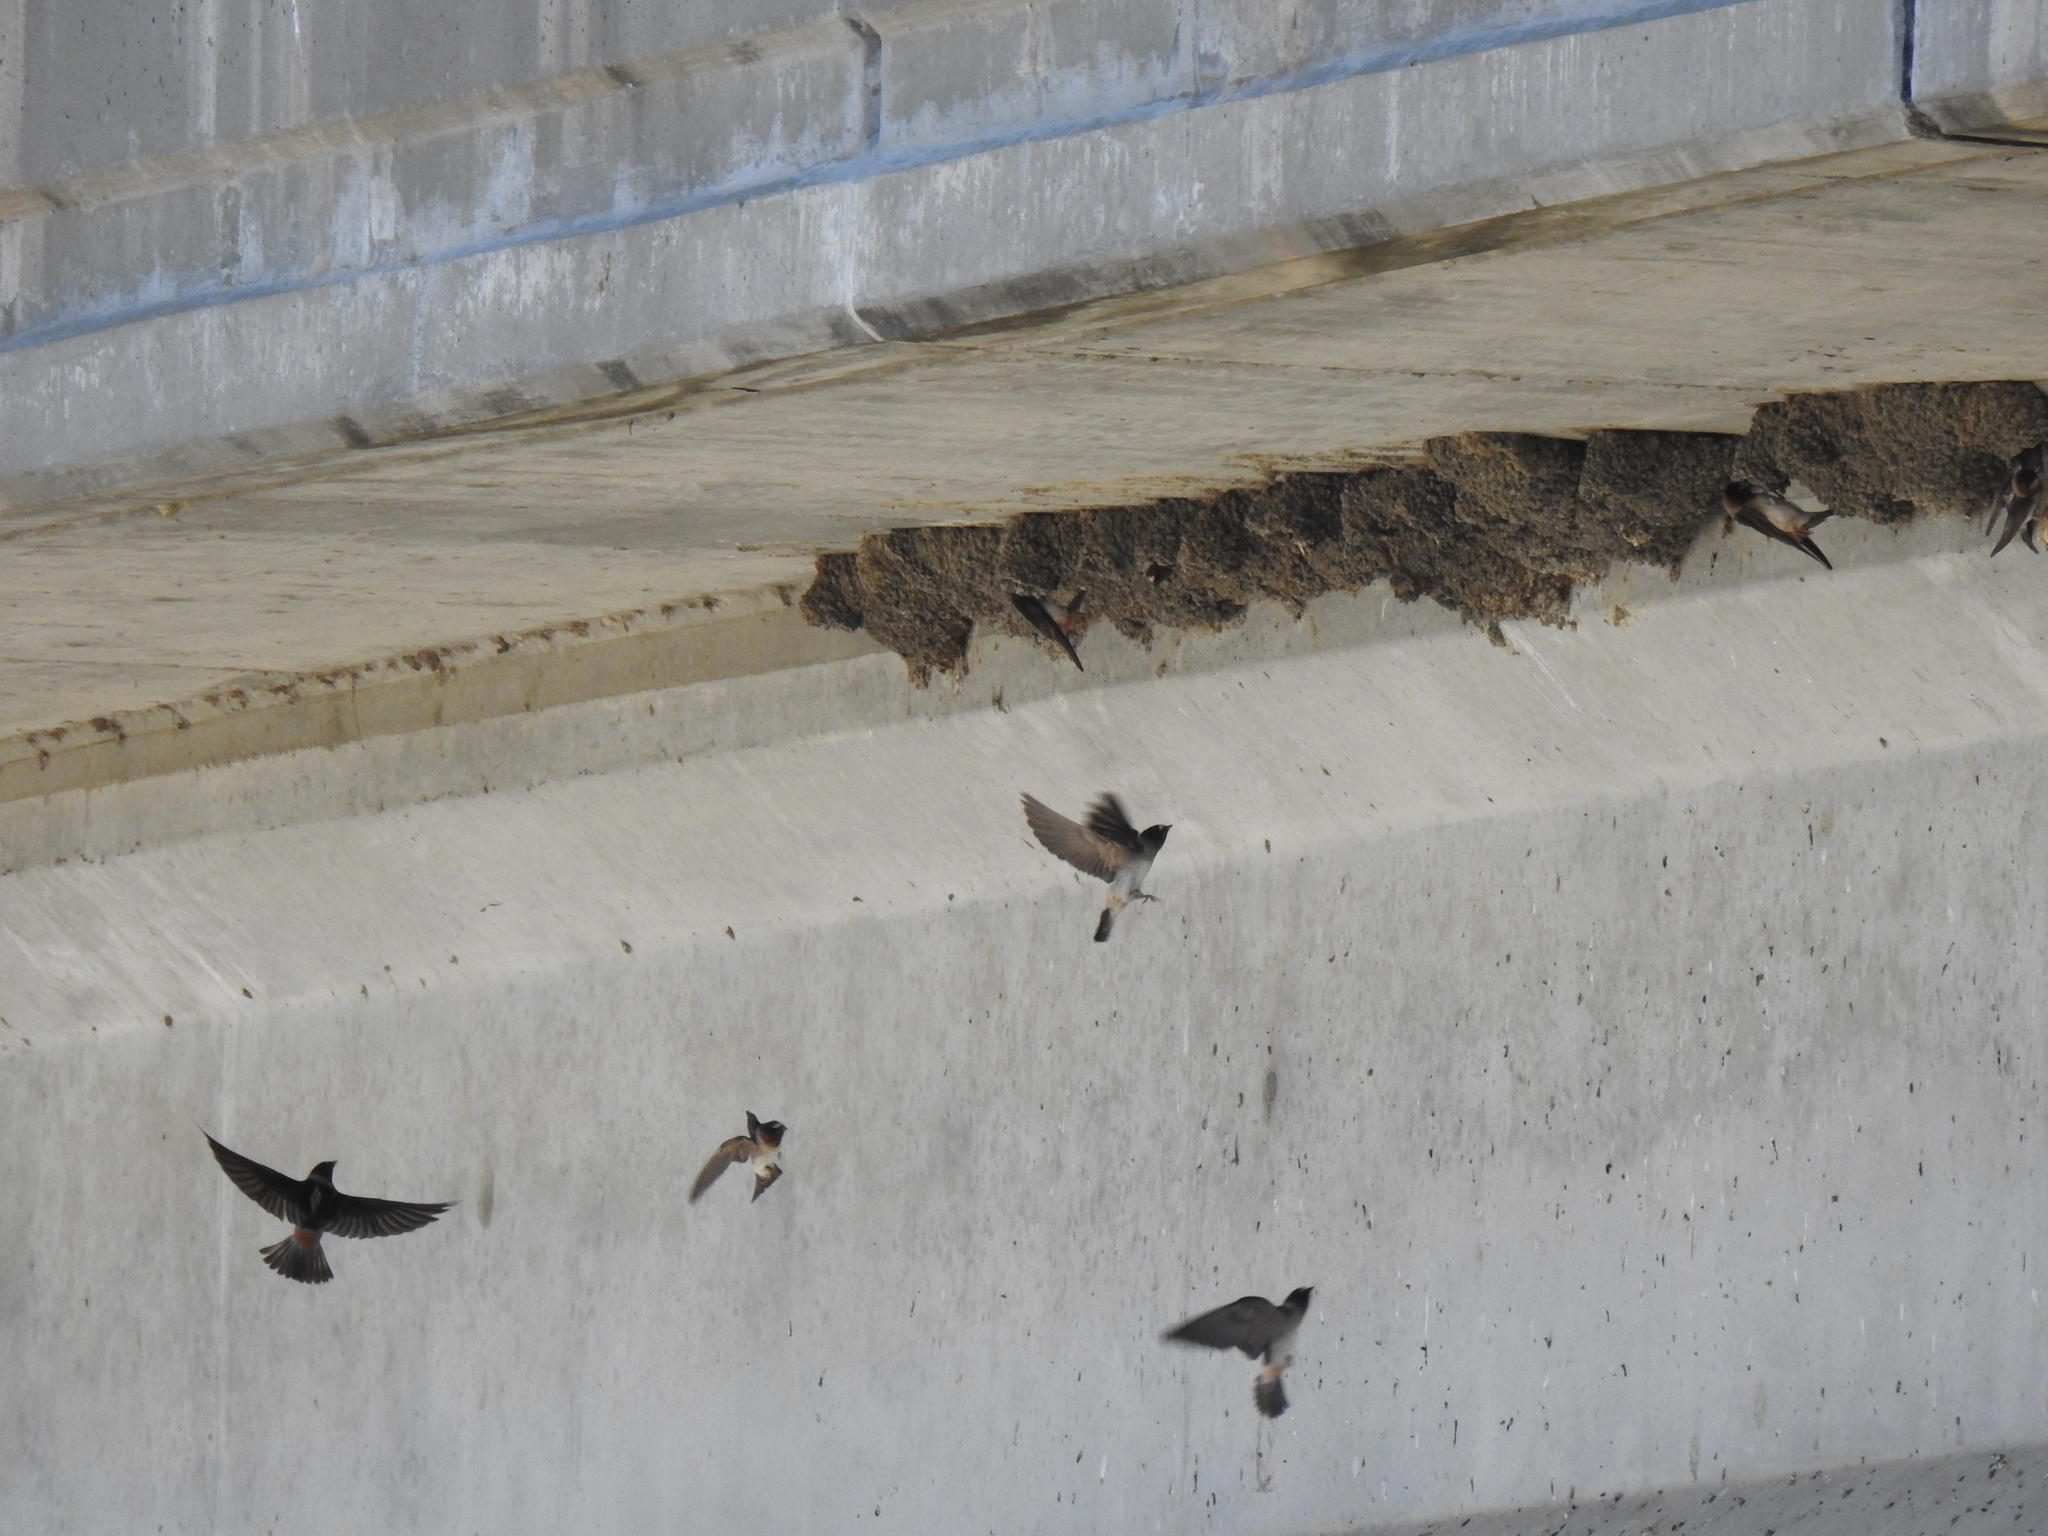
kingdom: Animalia
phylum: Chordata
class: Aves
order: Passeriformes
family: Hirundinidae
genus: Petrochelidon
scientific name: Petrochelidon pyrrhonota
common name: American cliff swallow
